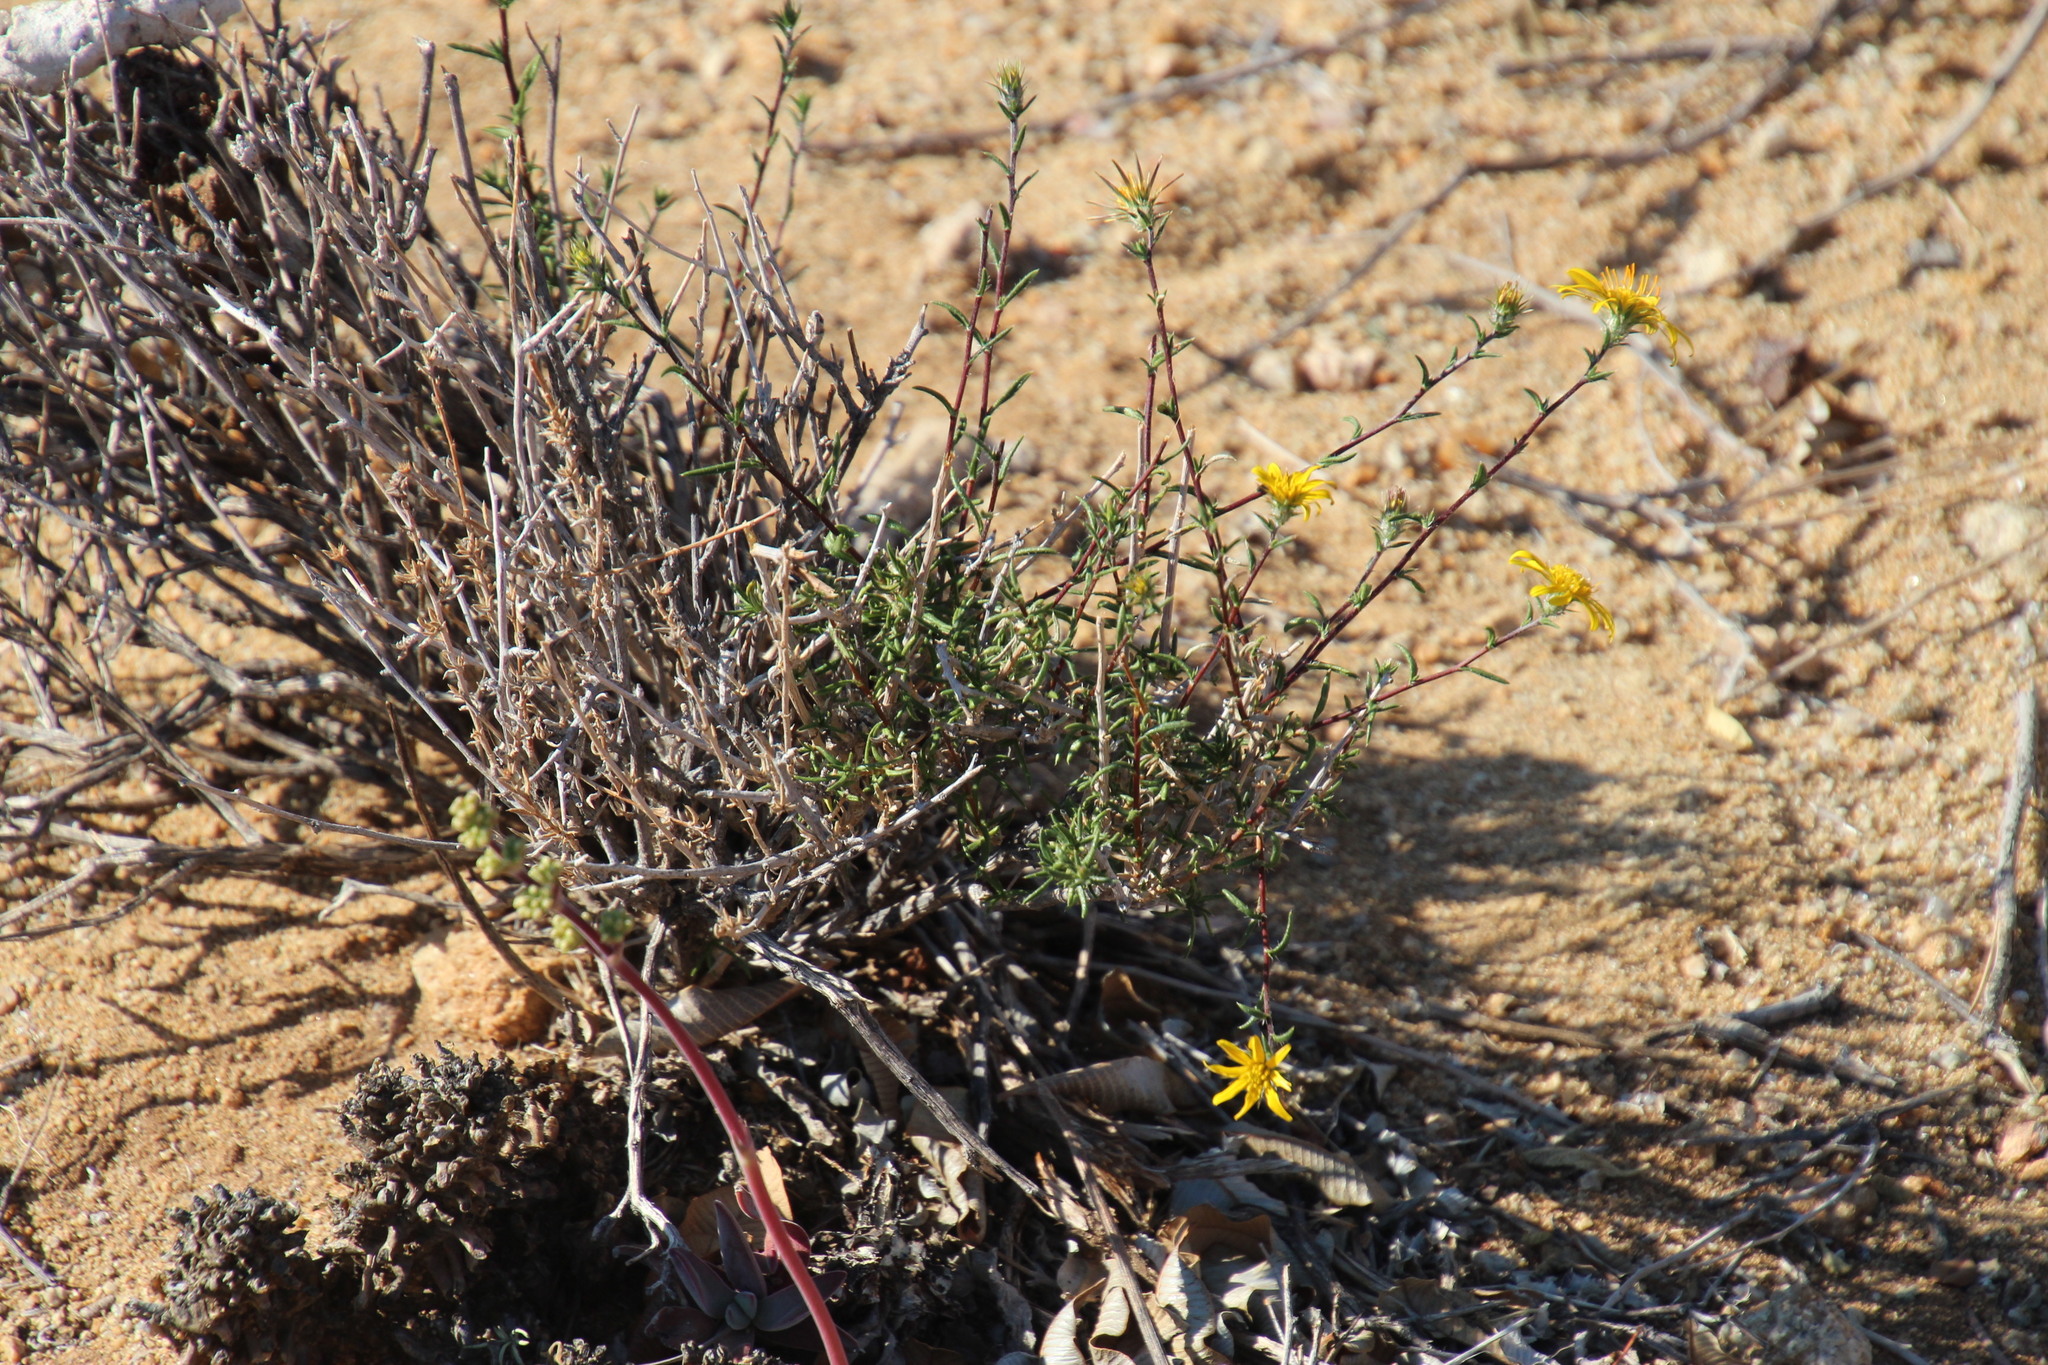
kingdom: Plantae
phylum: Tracheophyta
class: Magnoliopsida
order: Asterales
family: Asteraceae
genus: Gorteria
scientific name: Gorteria alienata
